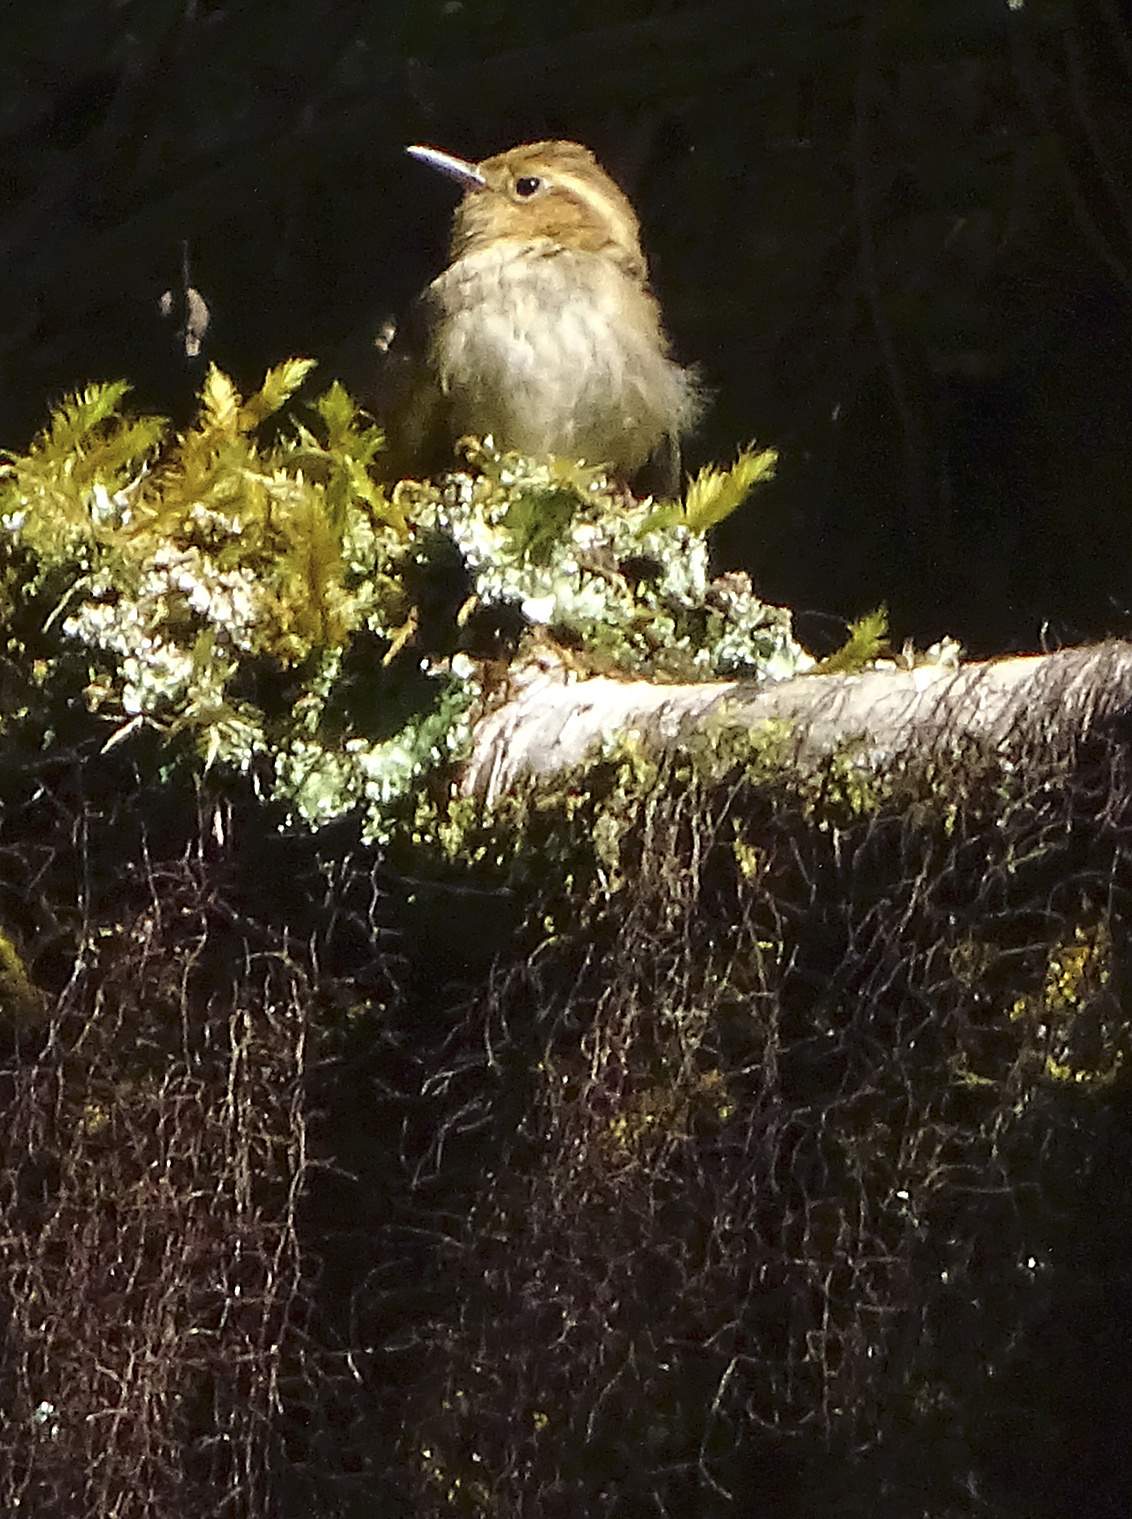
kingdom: Animalia
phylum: Chordata
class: Aves
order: Passeriformes
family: Troglodytidae
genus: Troglodytes
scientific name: Troglodytes ochraceus
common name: Ochraceous wren
